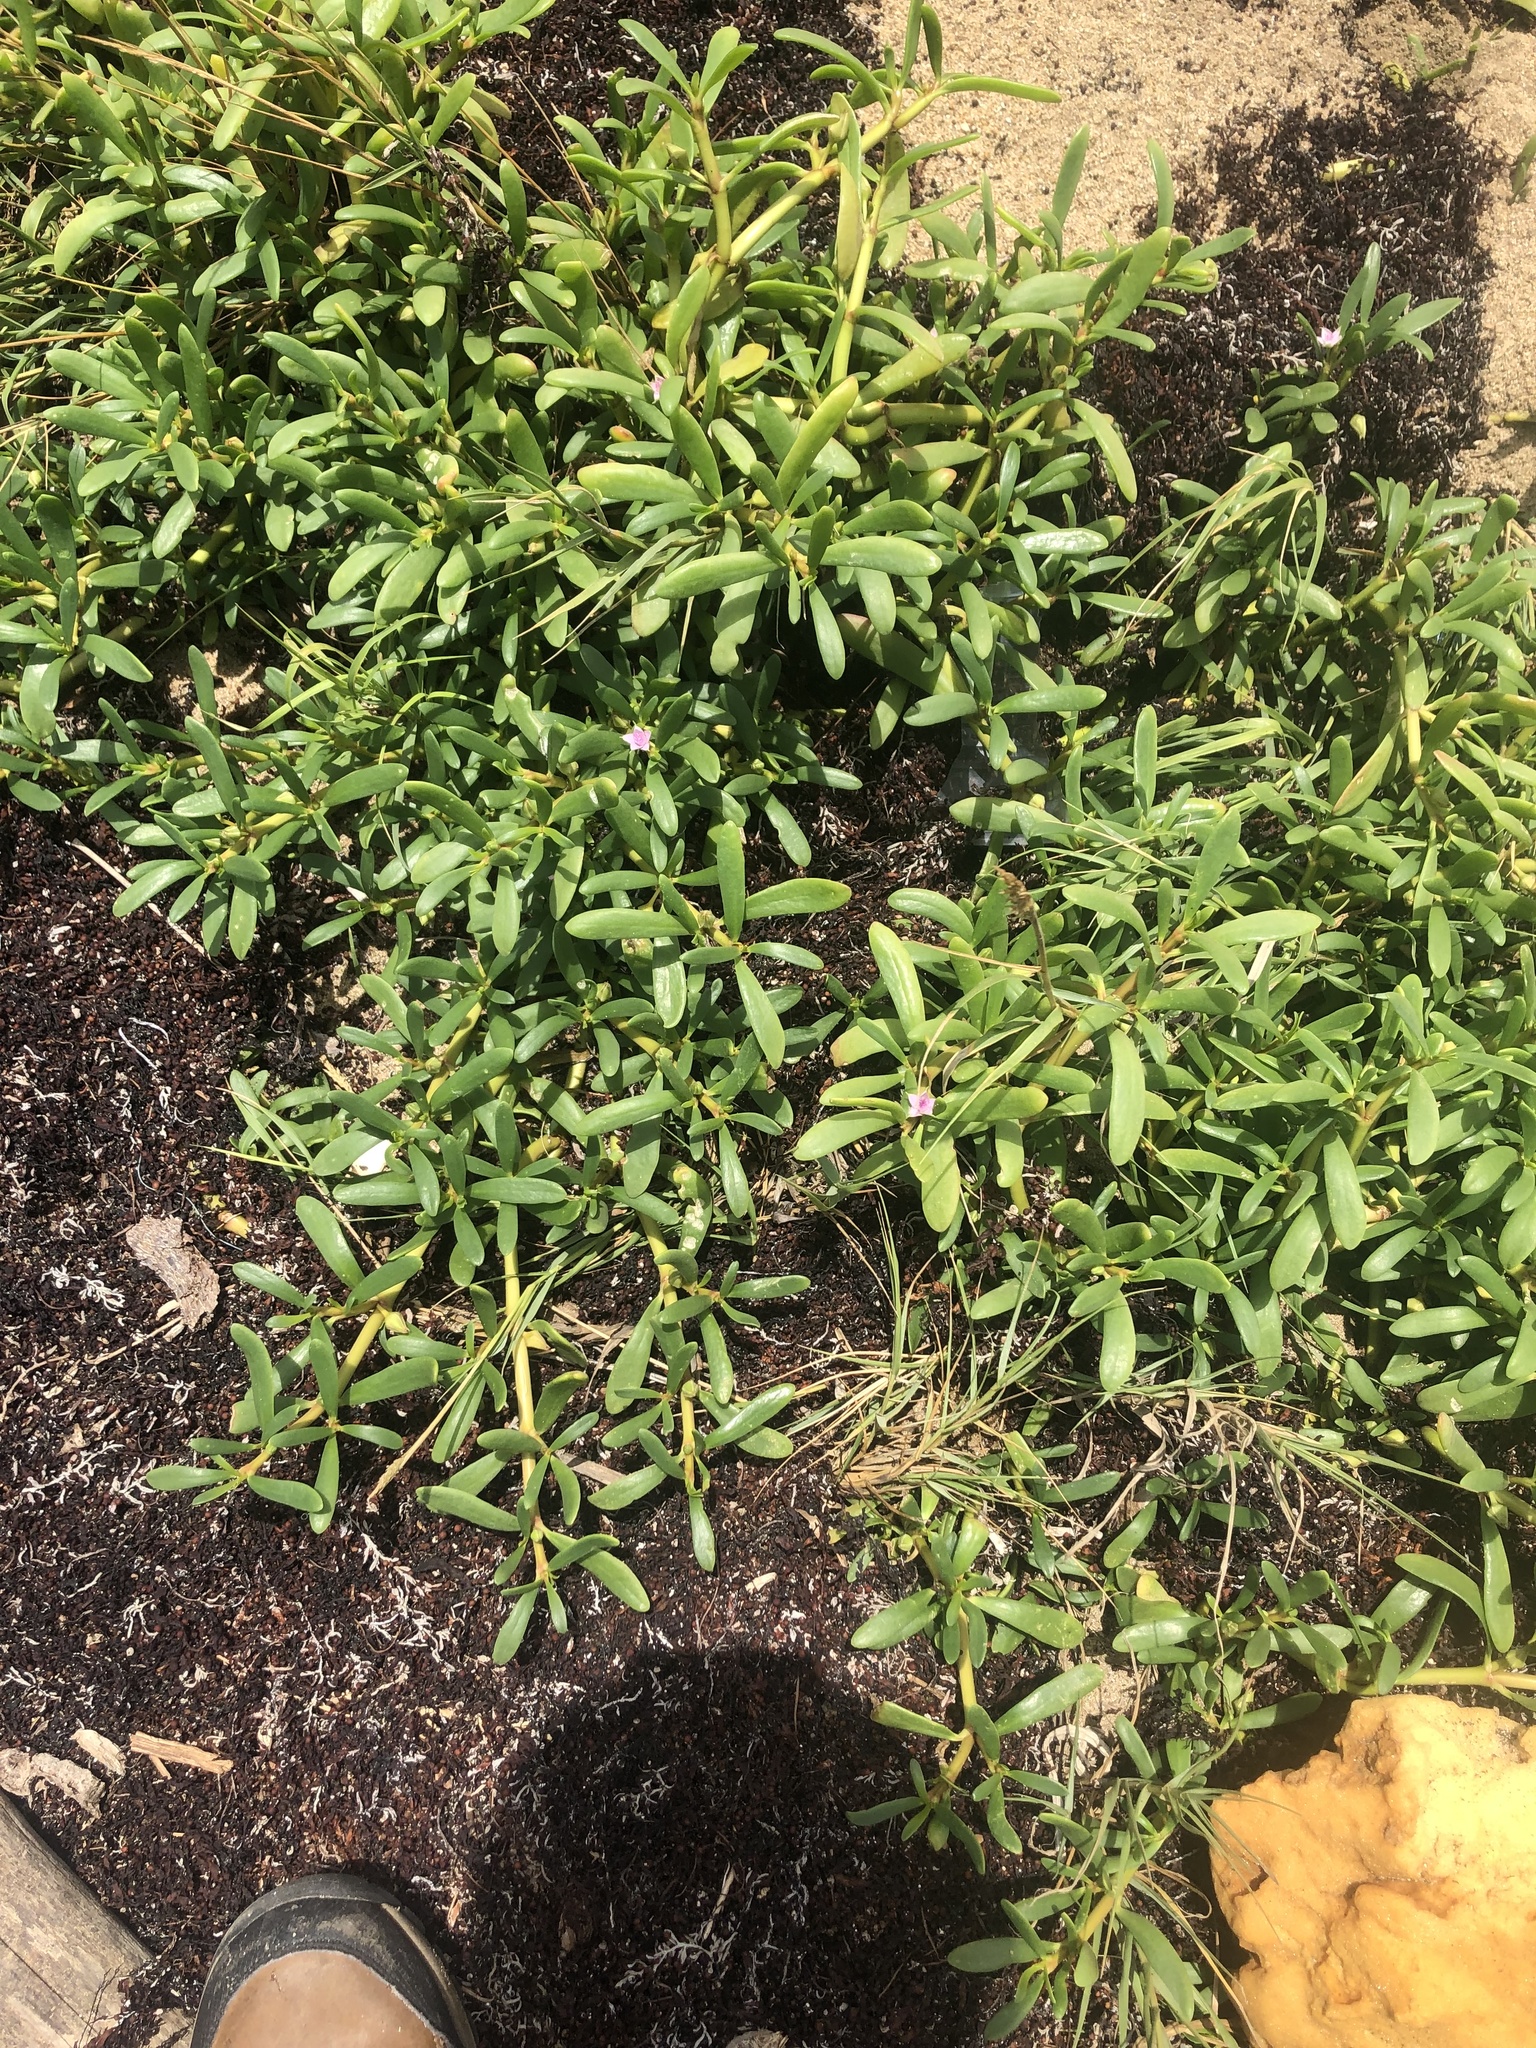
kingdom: Plantae
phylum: Tracheophyta
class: Magnoliopsida
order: Caryophyllales
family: Aizoaceae
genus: Sesuvium
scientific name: Sesuvium portulacastrum
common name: Sea-purslane
